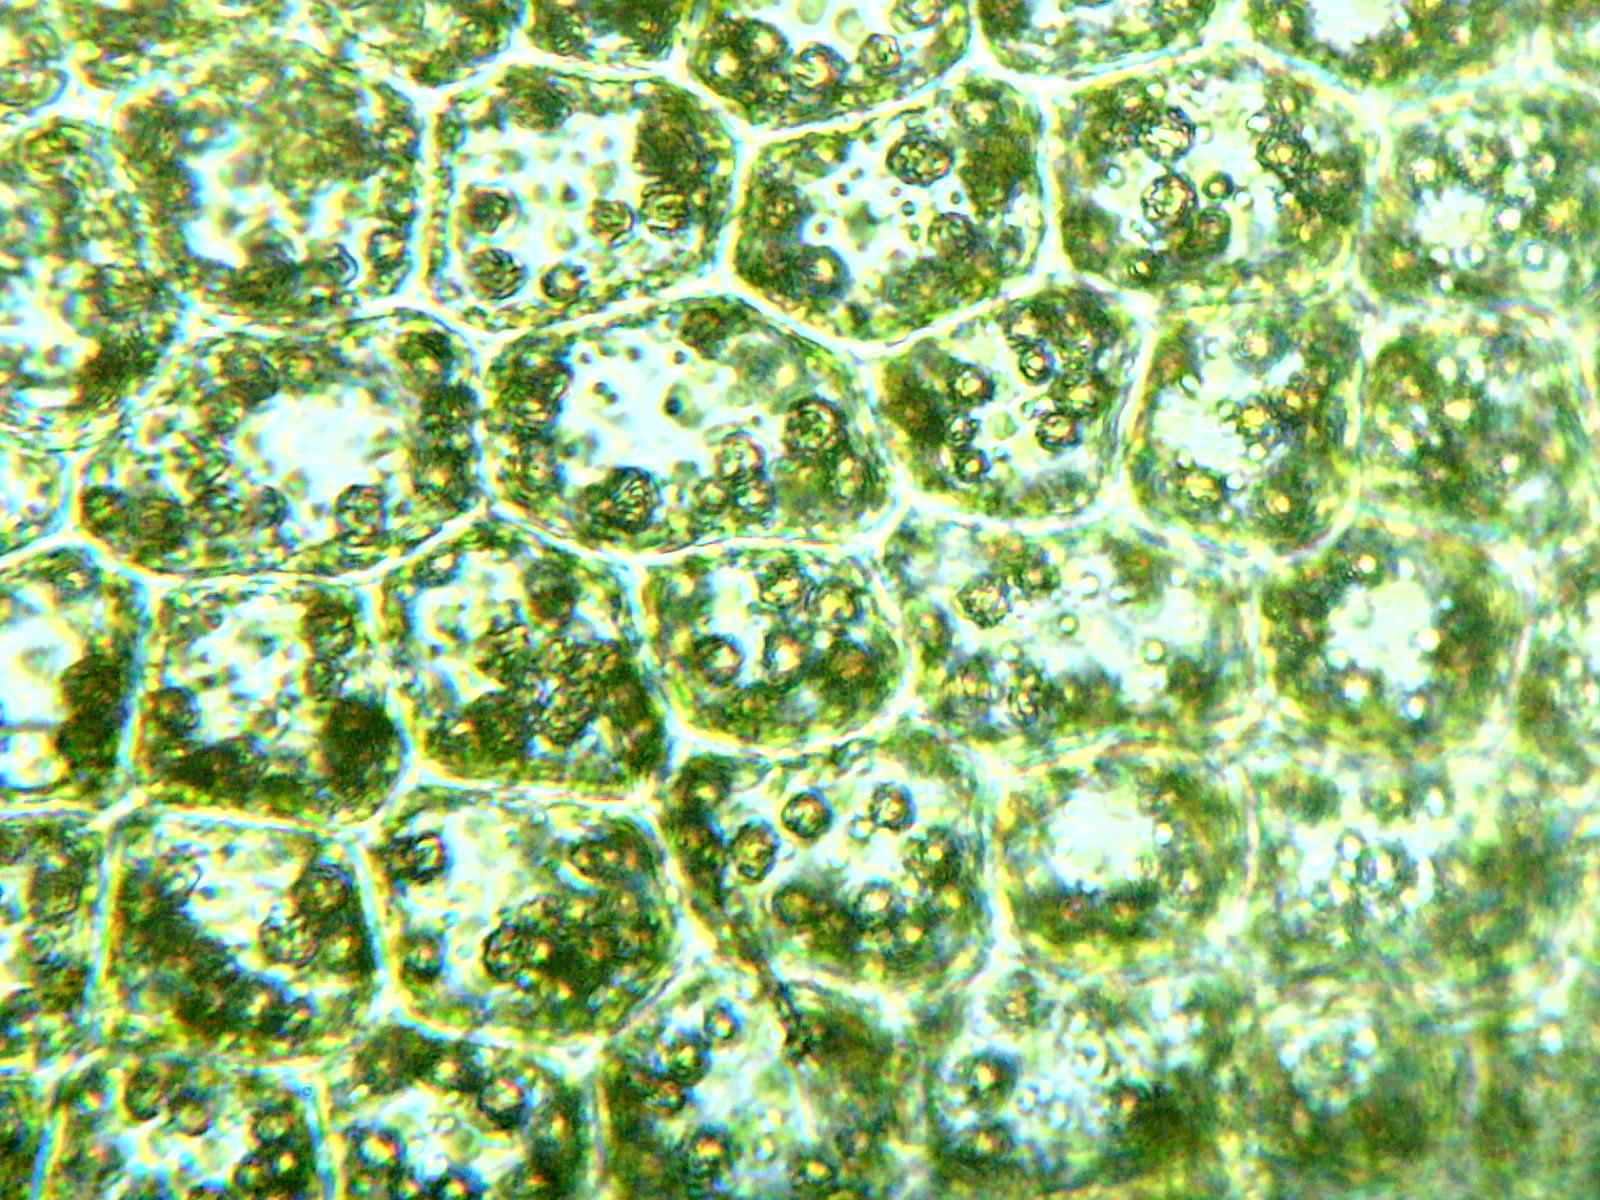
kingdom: Plantae
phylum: Marchantiophyta
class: Jungermanniopsida
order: Jungermanniales
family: Geocalycaceae
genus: Geocalyx
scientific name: Geocalyx graveolens
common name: Turps pouchwort
